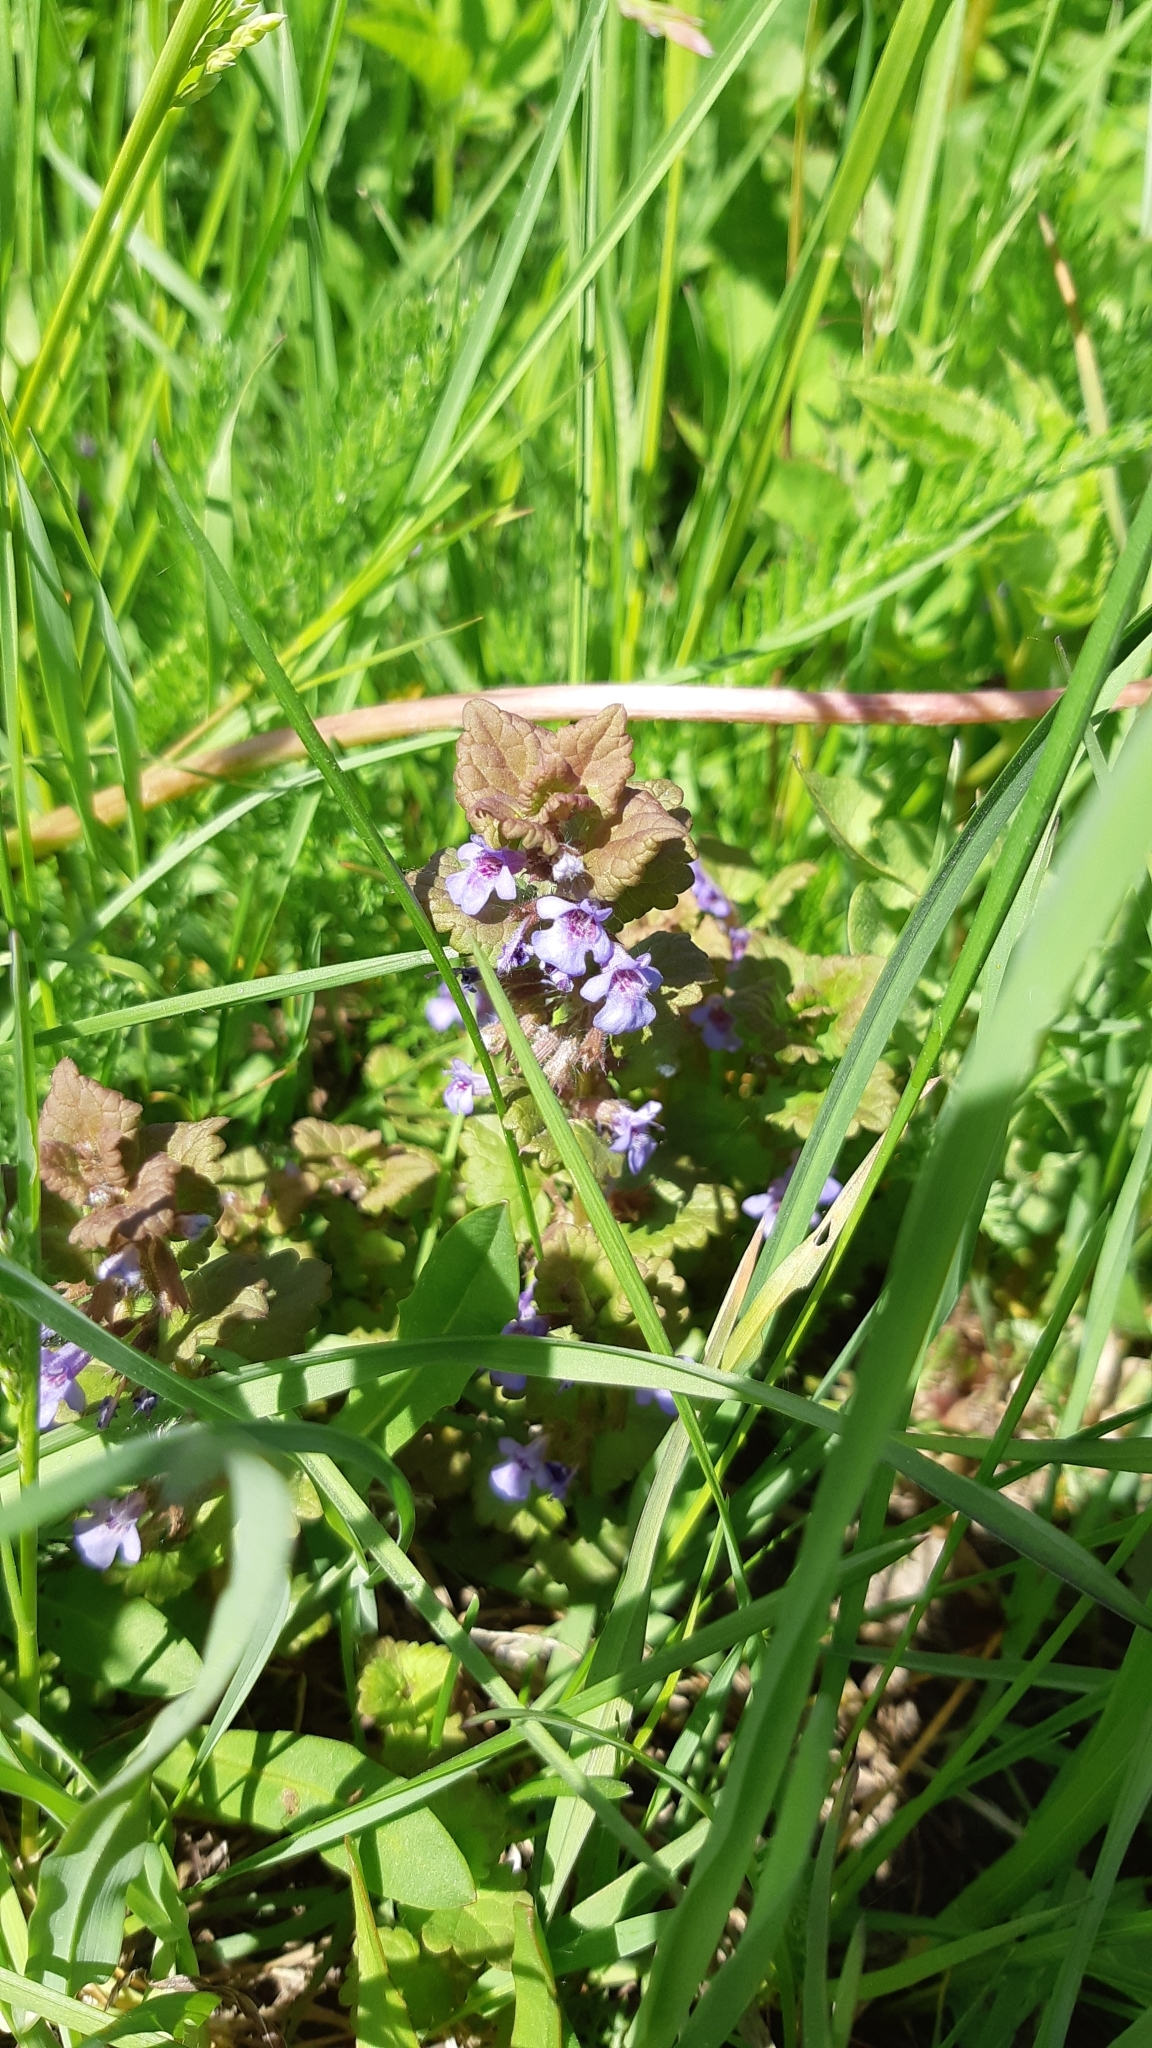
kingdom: Plantae
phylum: Tracheophyta
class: Magnoliopsida
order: Lamiales
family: Lamiaceae
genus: Glechoma
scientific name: Glechoma hederacea
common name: Ground ivy
